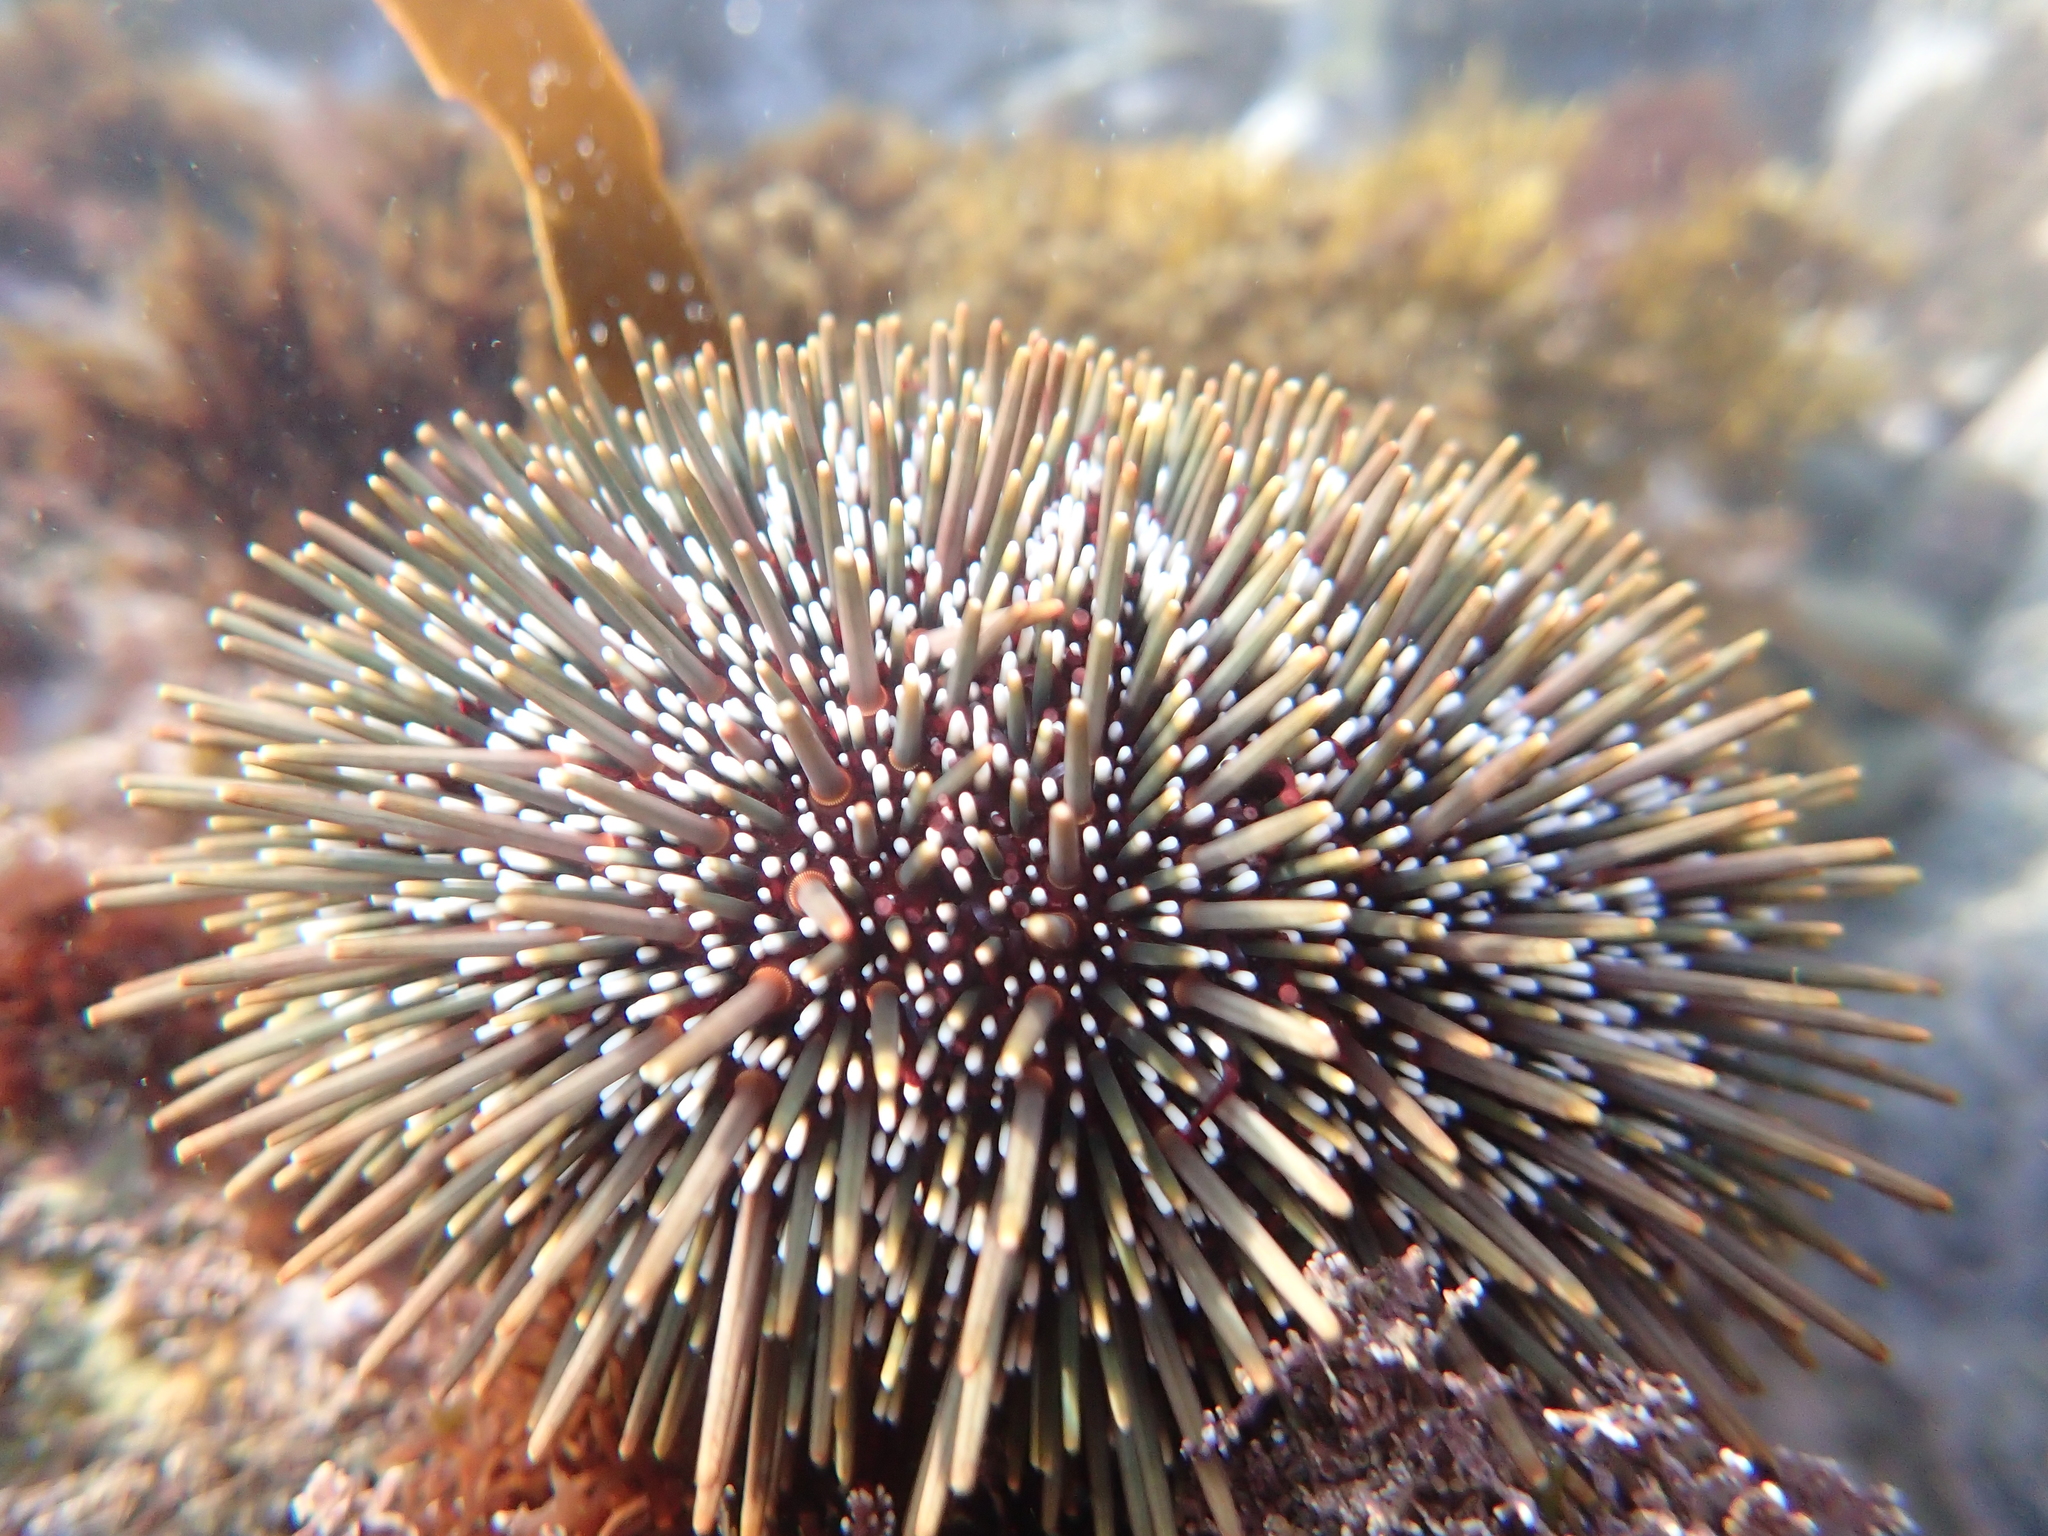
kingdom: Animalia
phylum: Echinodermata
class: Echinoidea
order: Camarodonta
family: Echinometridae
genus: Evechinus
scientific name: Evechinus chloroticus
